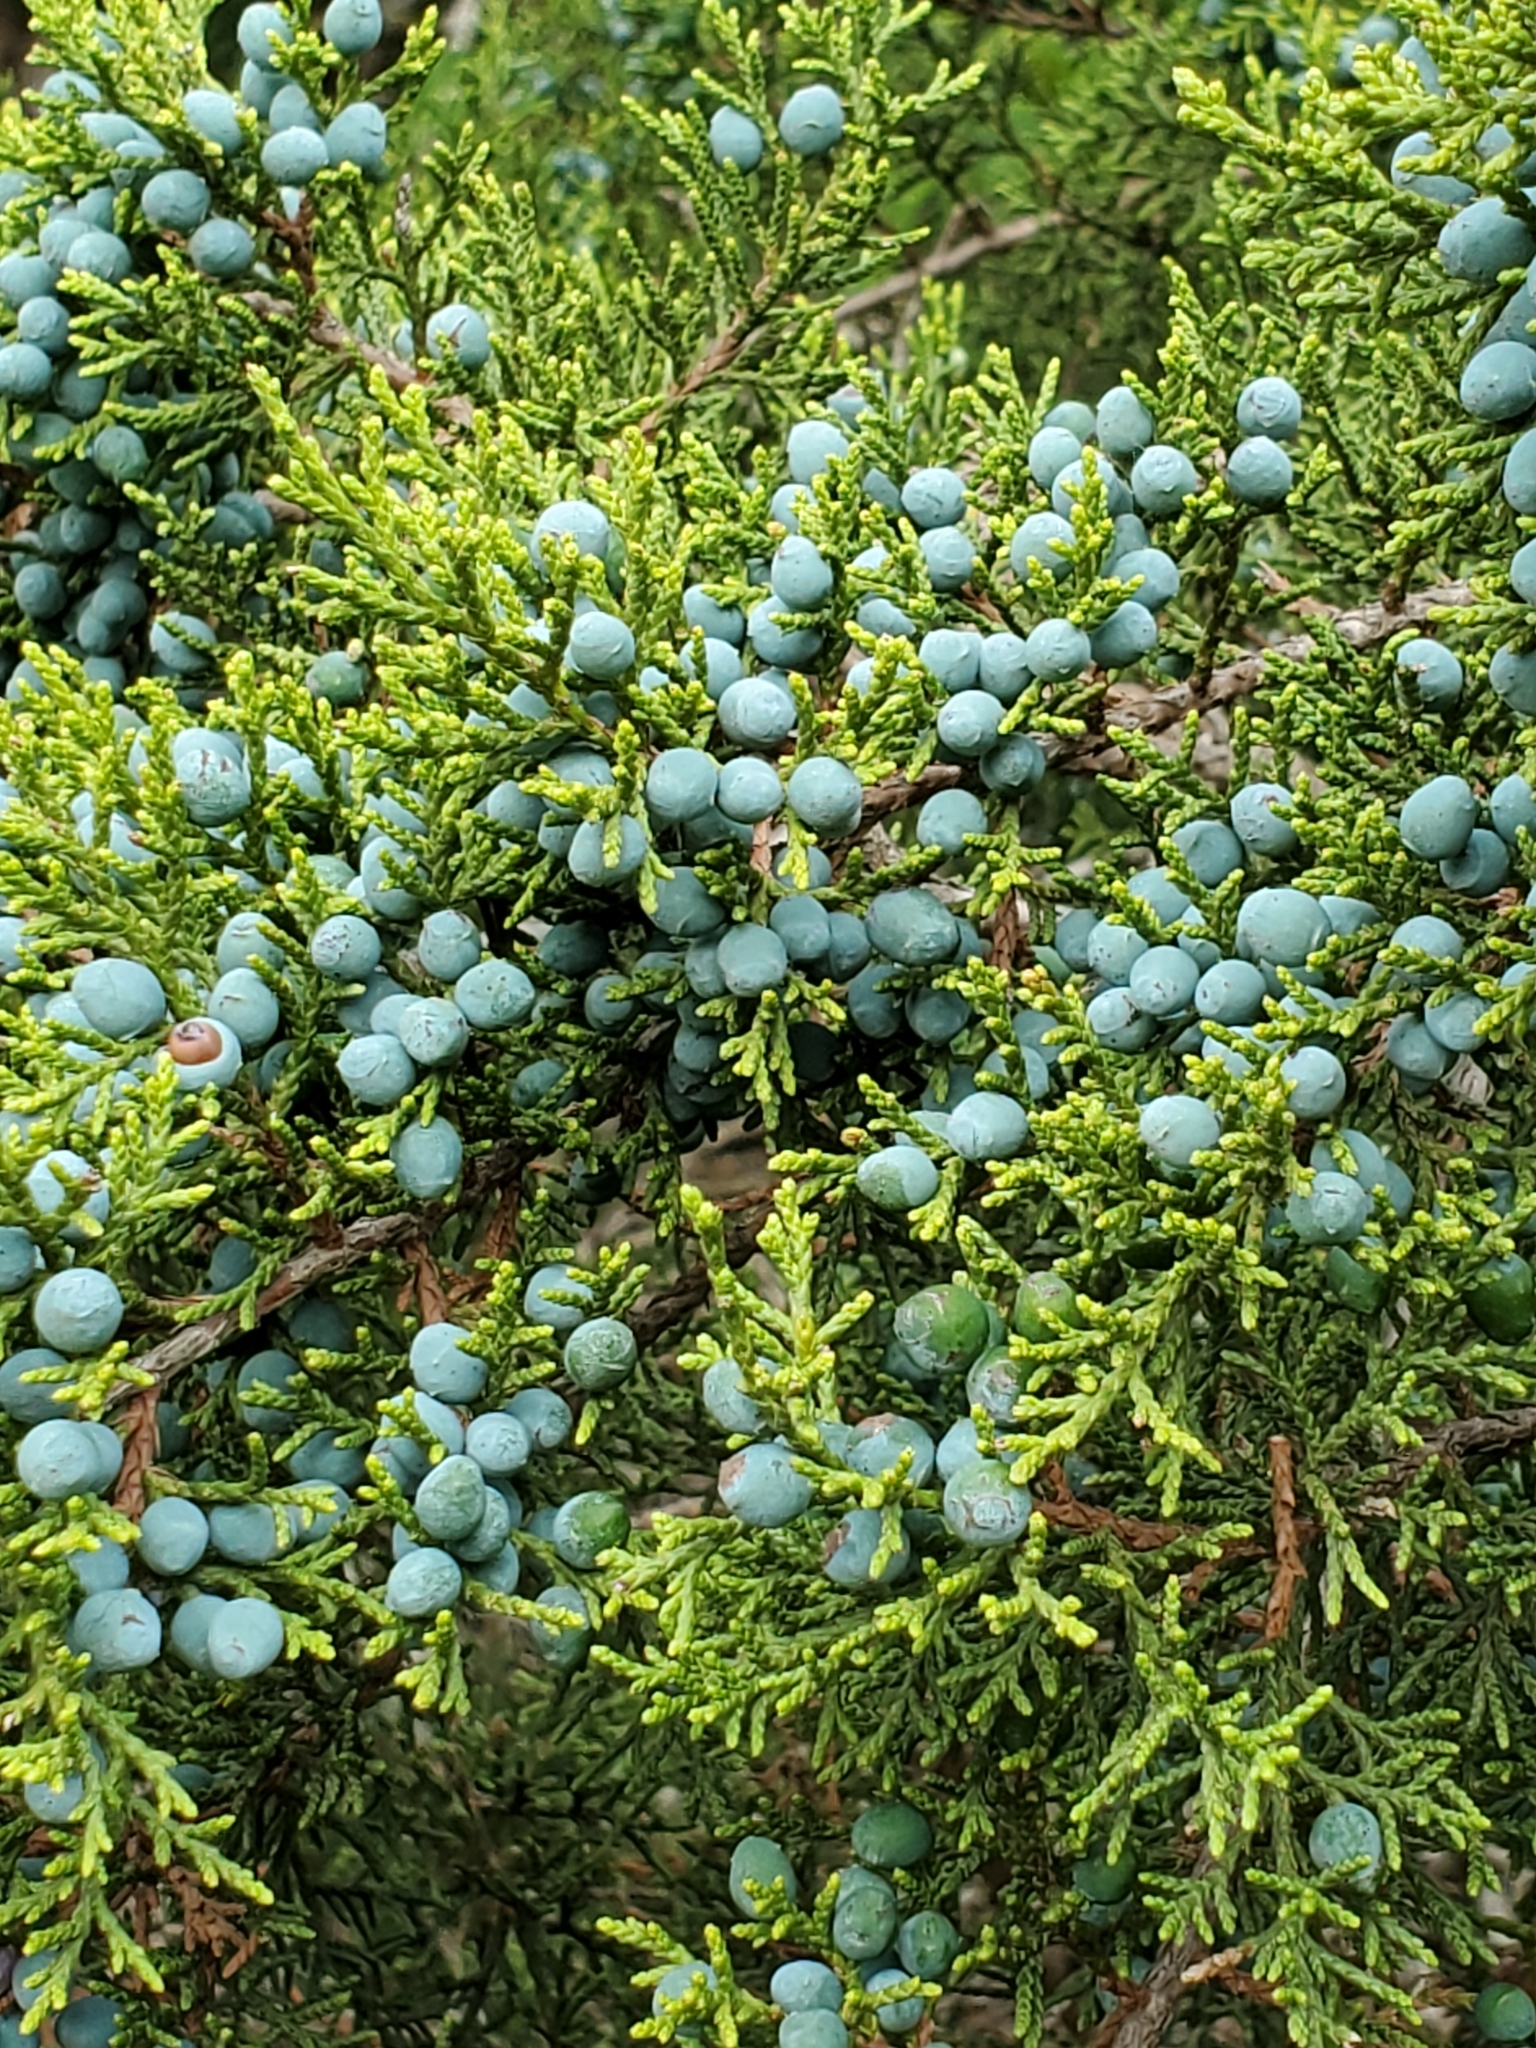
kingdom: Plantae
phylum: Tracheophyta
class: Pinopsida
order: Pinales
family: Cupressaceae
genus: Juniperus
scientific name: Juniperus ashei
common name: Mexican juniper
